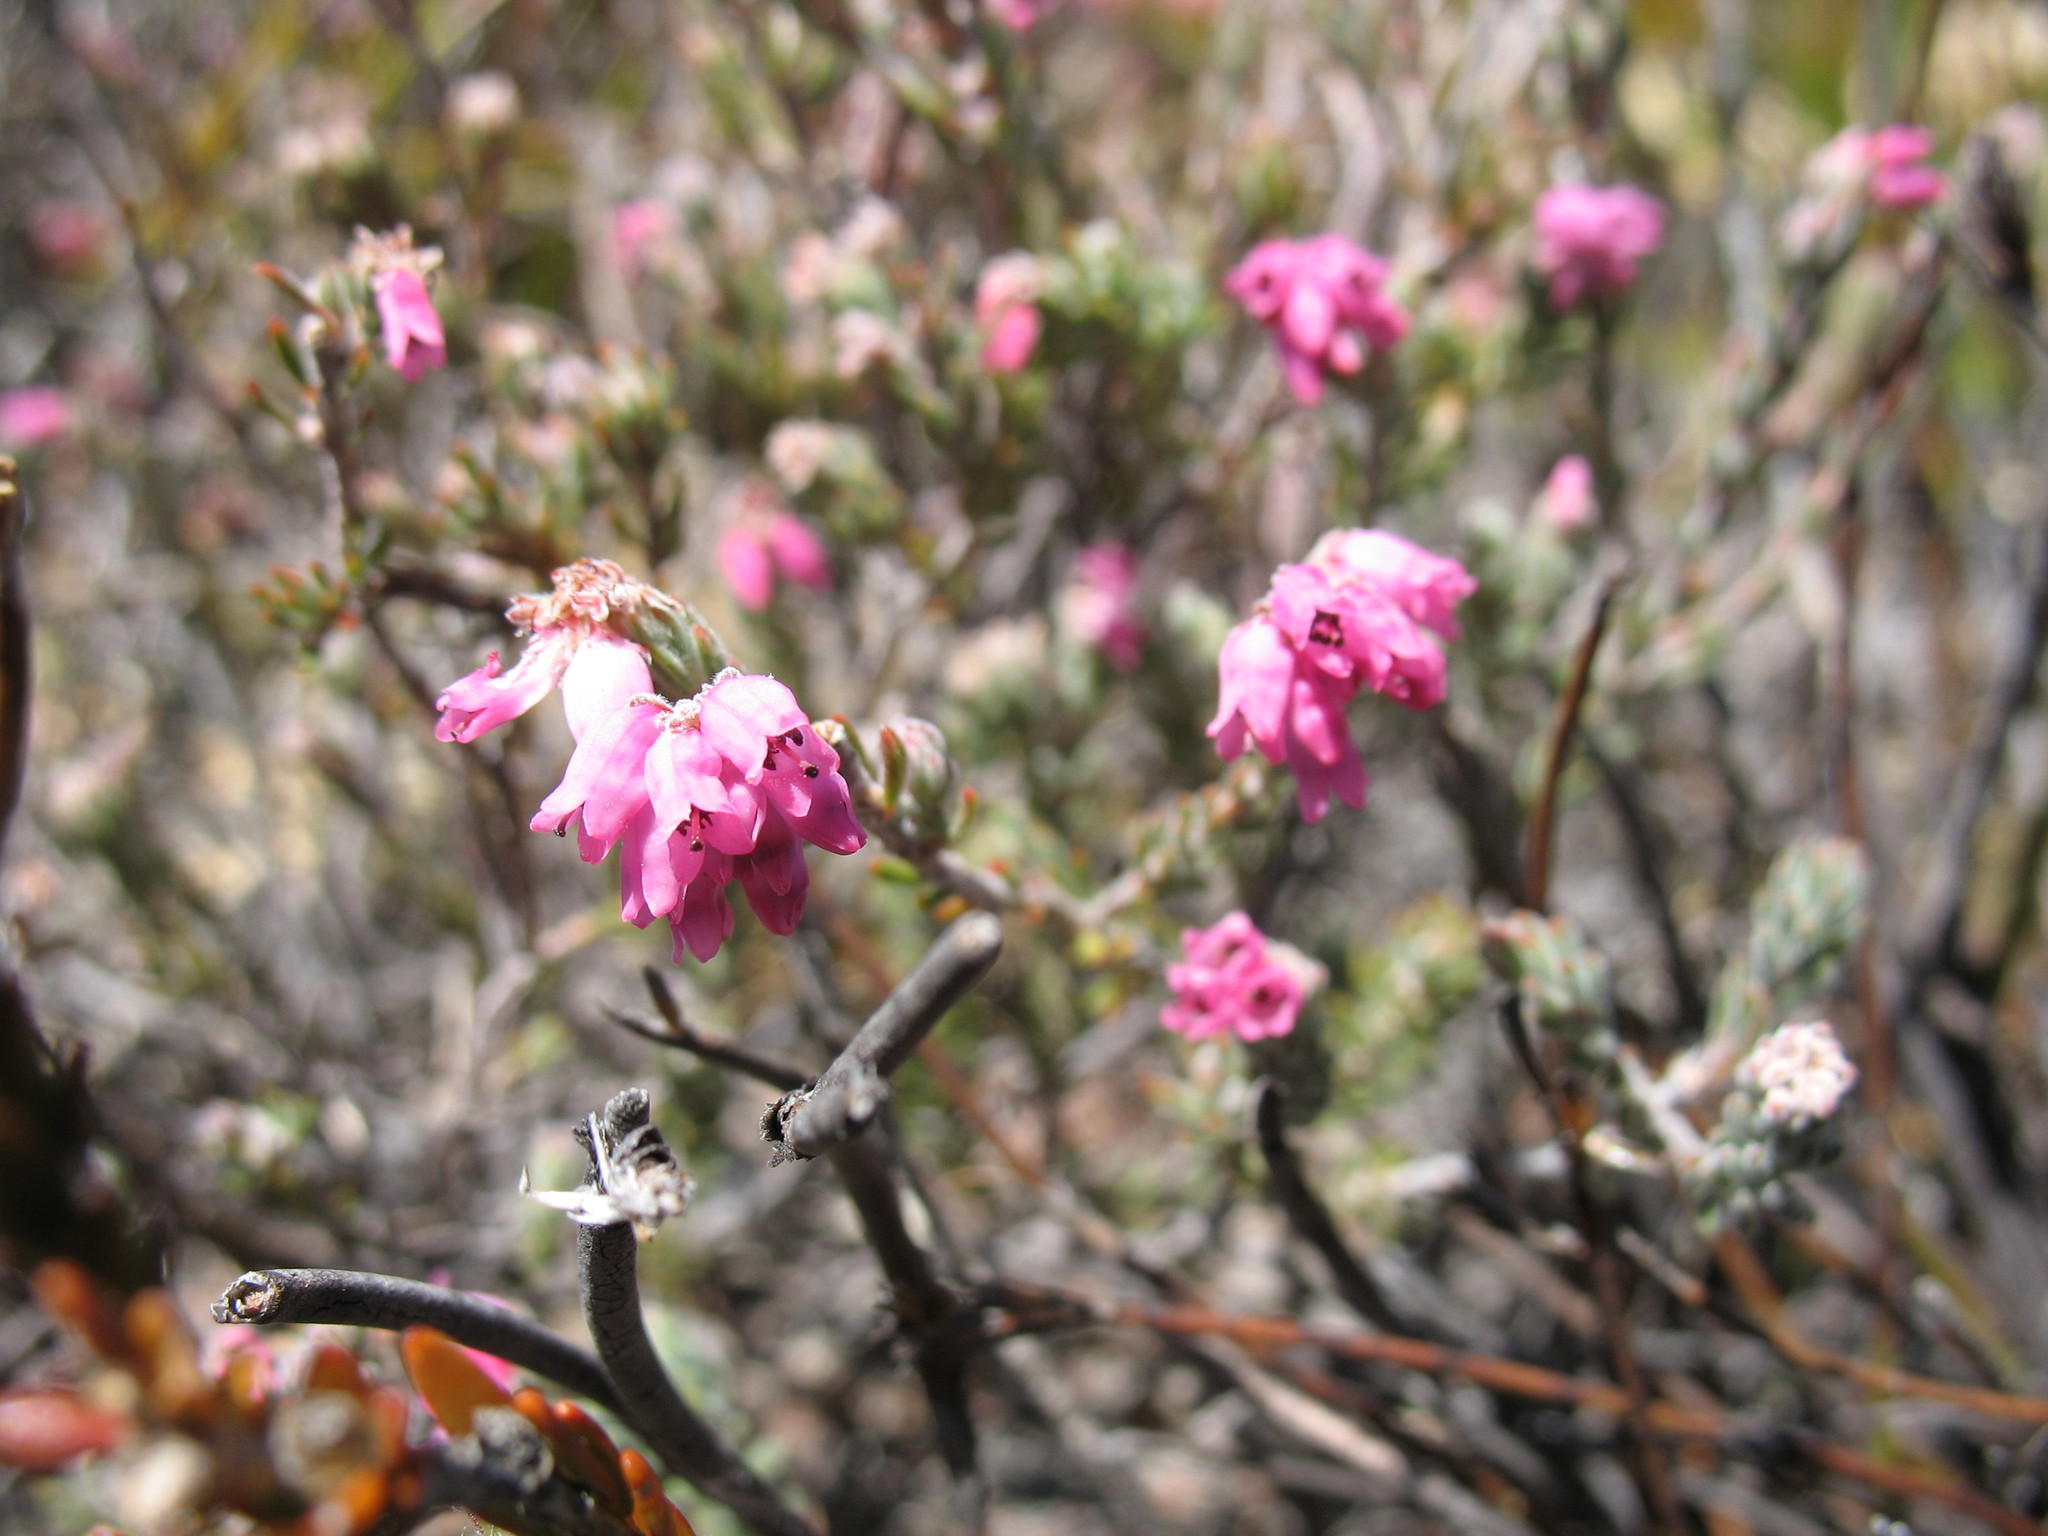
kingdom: Plantae
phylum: Tracheophyta
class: Magnoliopsida
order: Ericales
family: Ericaceae
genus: Erica
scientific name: Erica maderi
